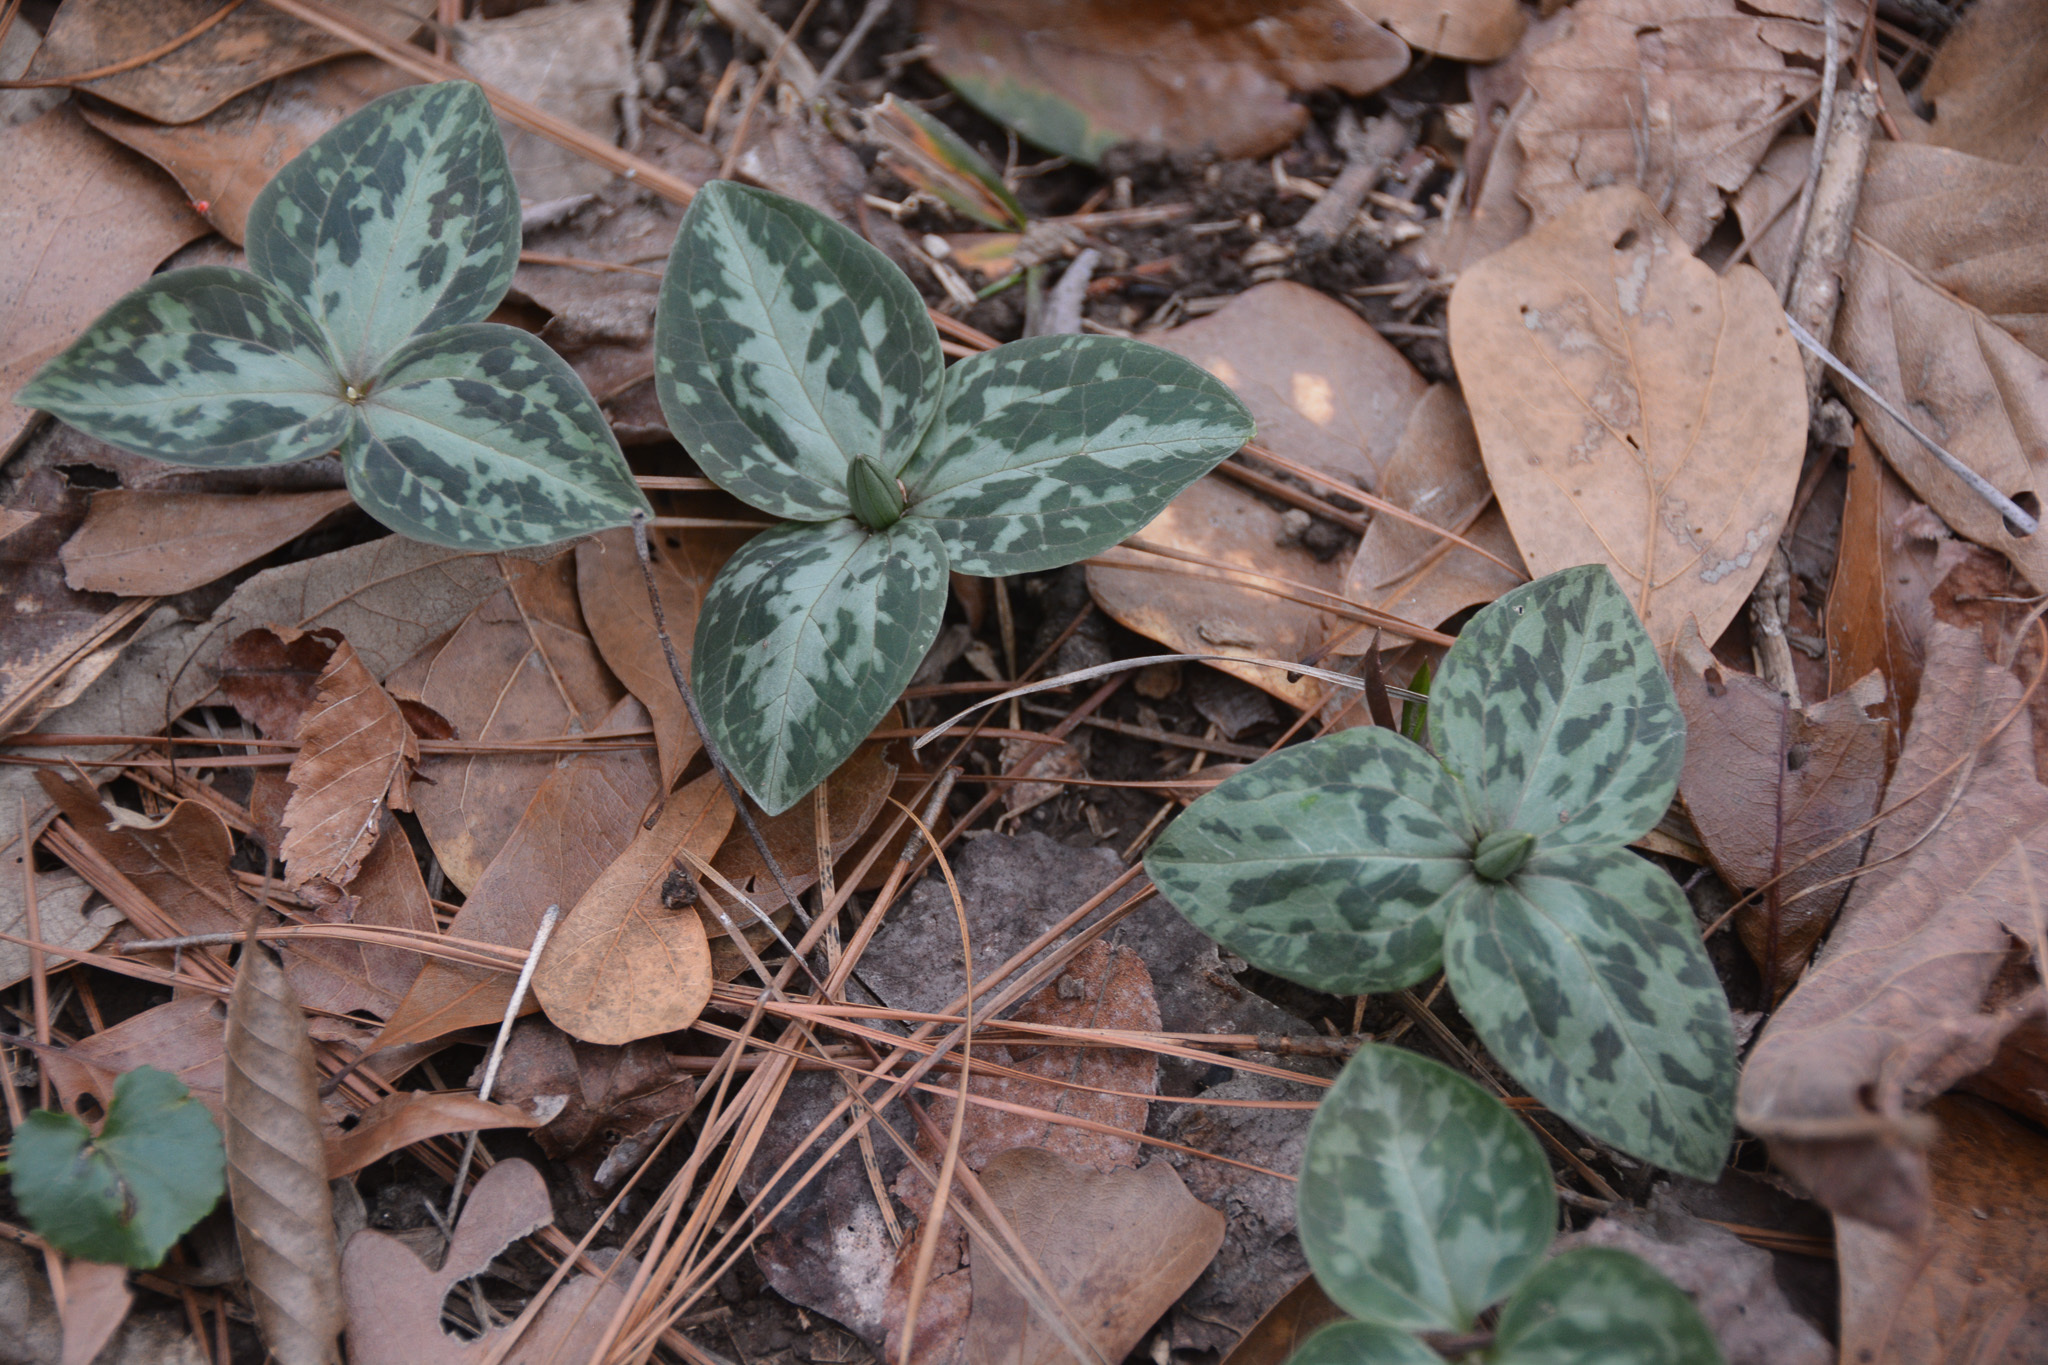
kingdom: Plantae
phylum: Tracheophyta
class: Liliopsida
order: Liliales
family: Melanthiaceae
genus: Trillium
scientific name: Trillium foetidissimum
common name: Mississippi river trillium
